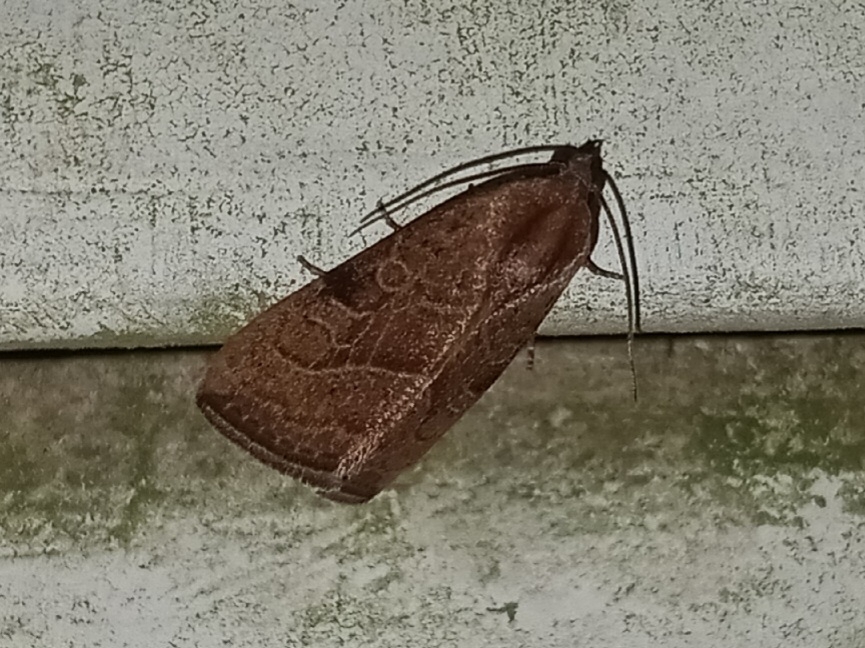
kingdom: Animalia
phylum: Arthropoda
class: Insecta
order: Lepidoptera
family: Noctuidae
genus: Galgula
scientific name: Galgula partita
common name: Wedgeling
